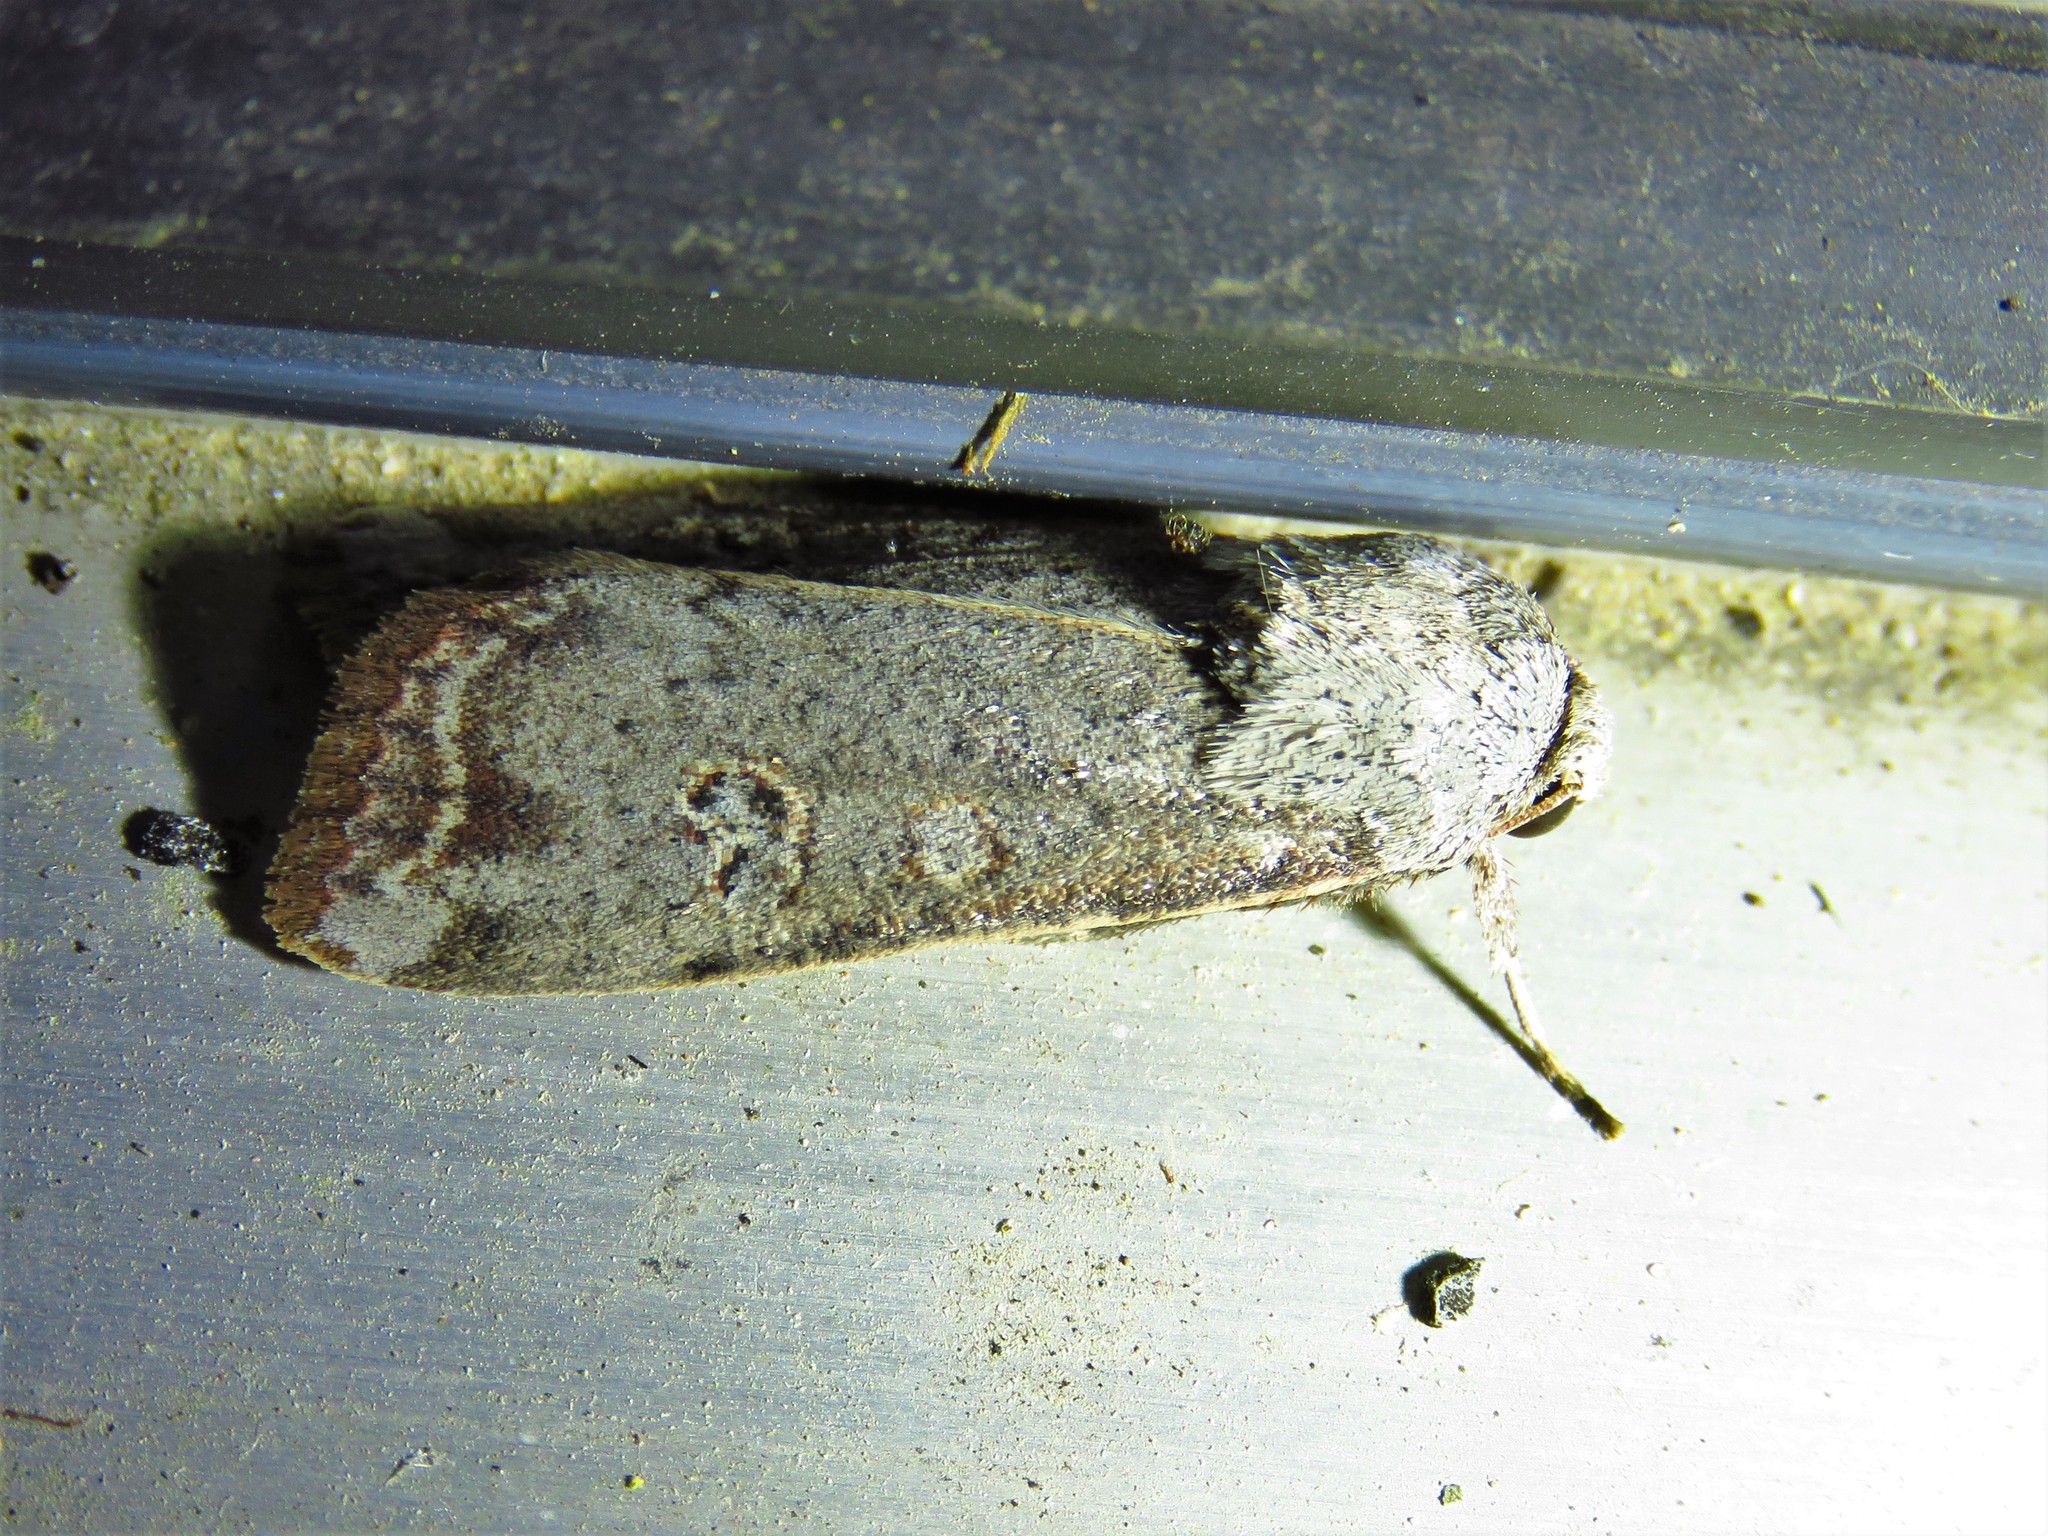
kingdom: Animalia
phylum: Arthropoda
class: Insecta
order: Lepidoptera
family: Noctuidae
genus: Anicla
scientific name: Anicla infecta
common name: Green cutworm
